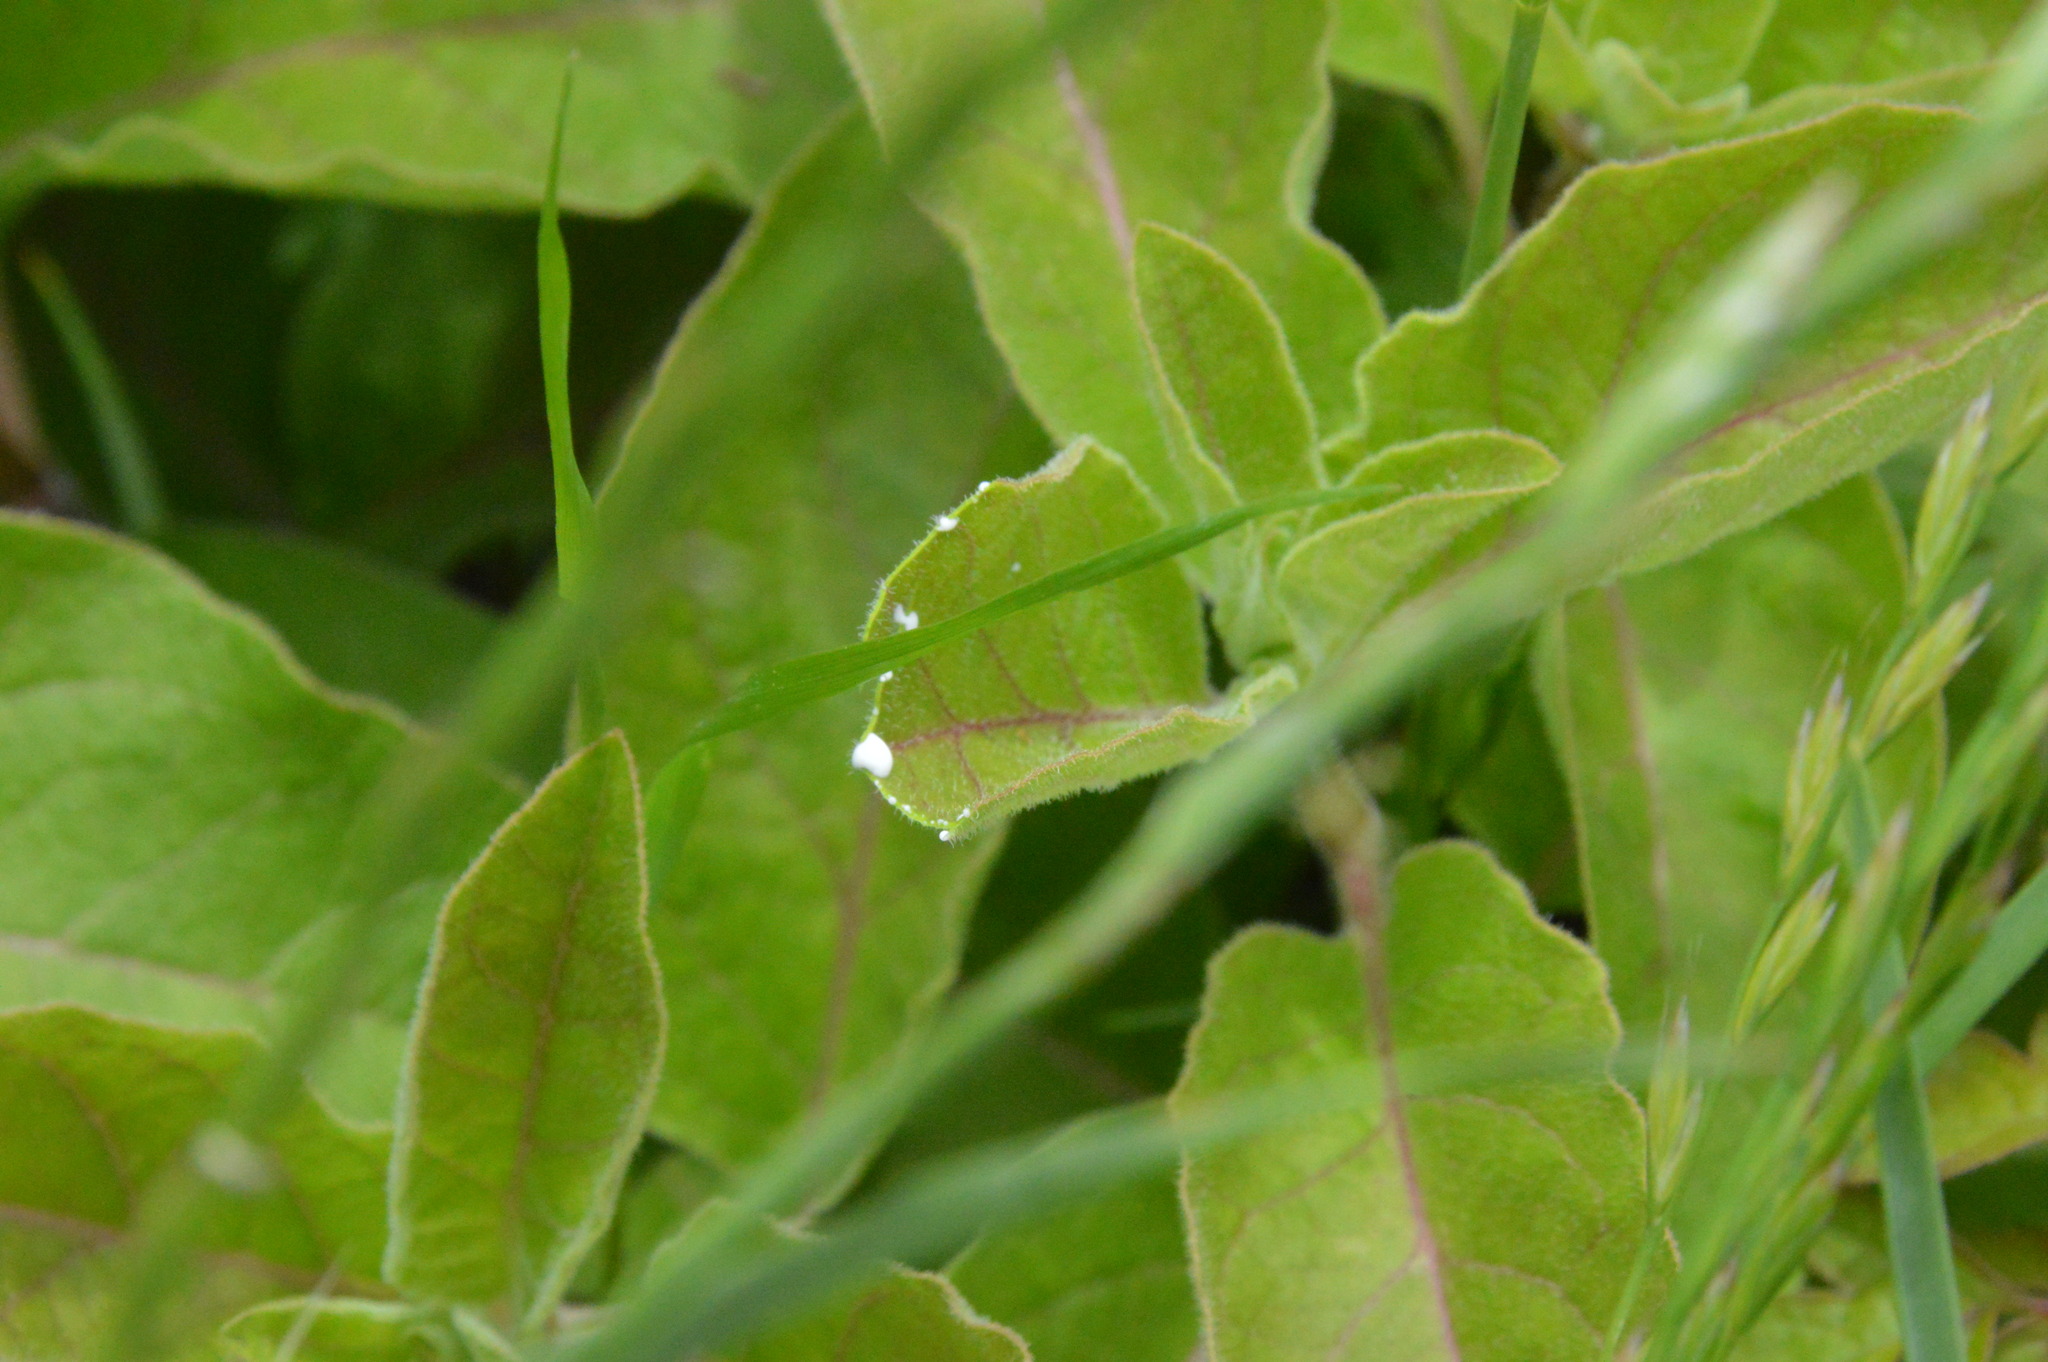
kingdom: Plantae
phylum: Tracheophyta
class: Magnoliopsida
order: Gentianales
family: Apocynaceae
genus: Asclepias
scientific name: Asclepias oenotheroides
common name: Zizotes milkweed
